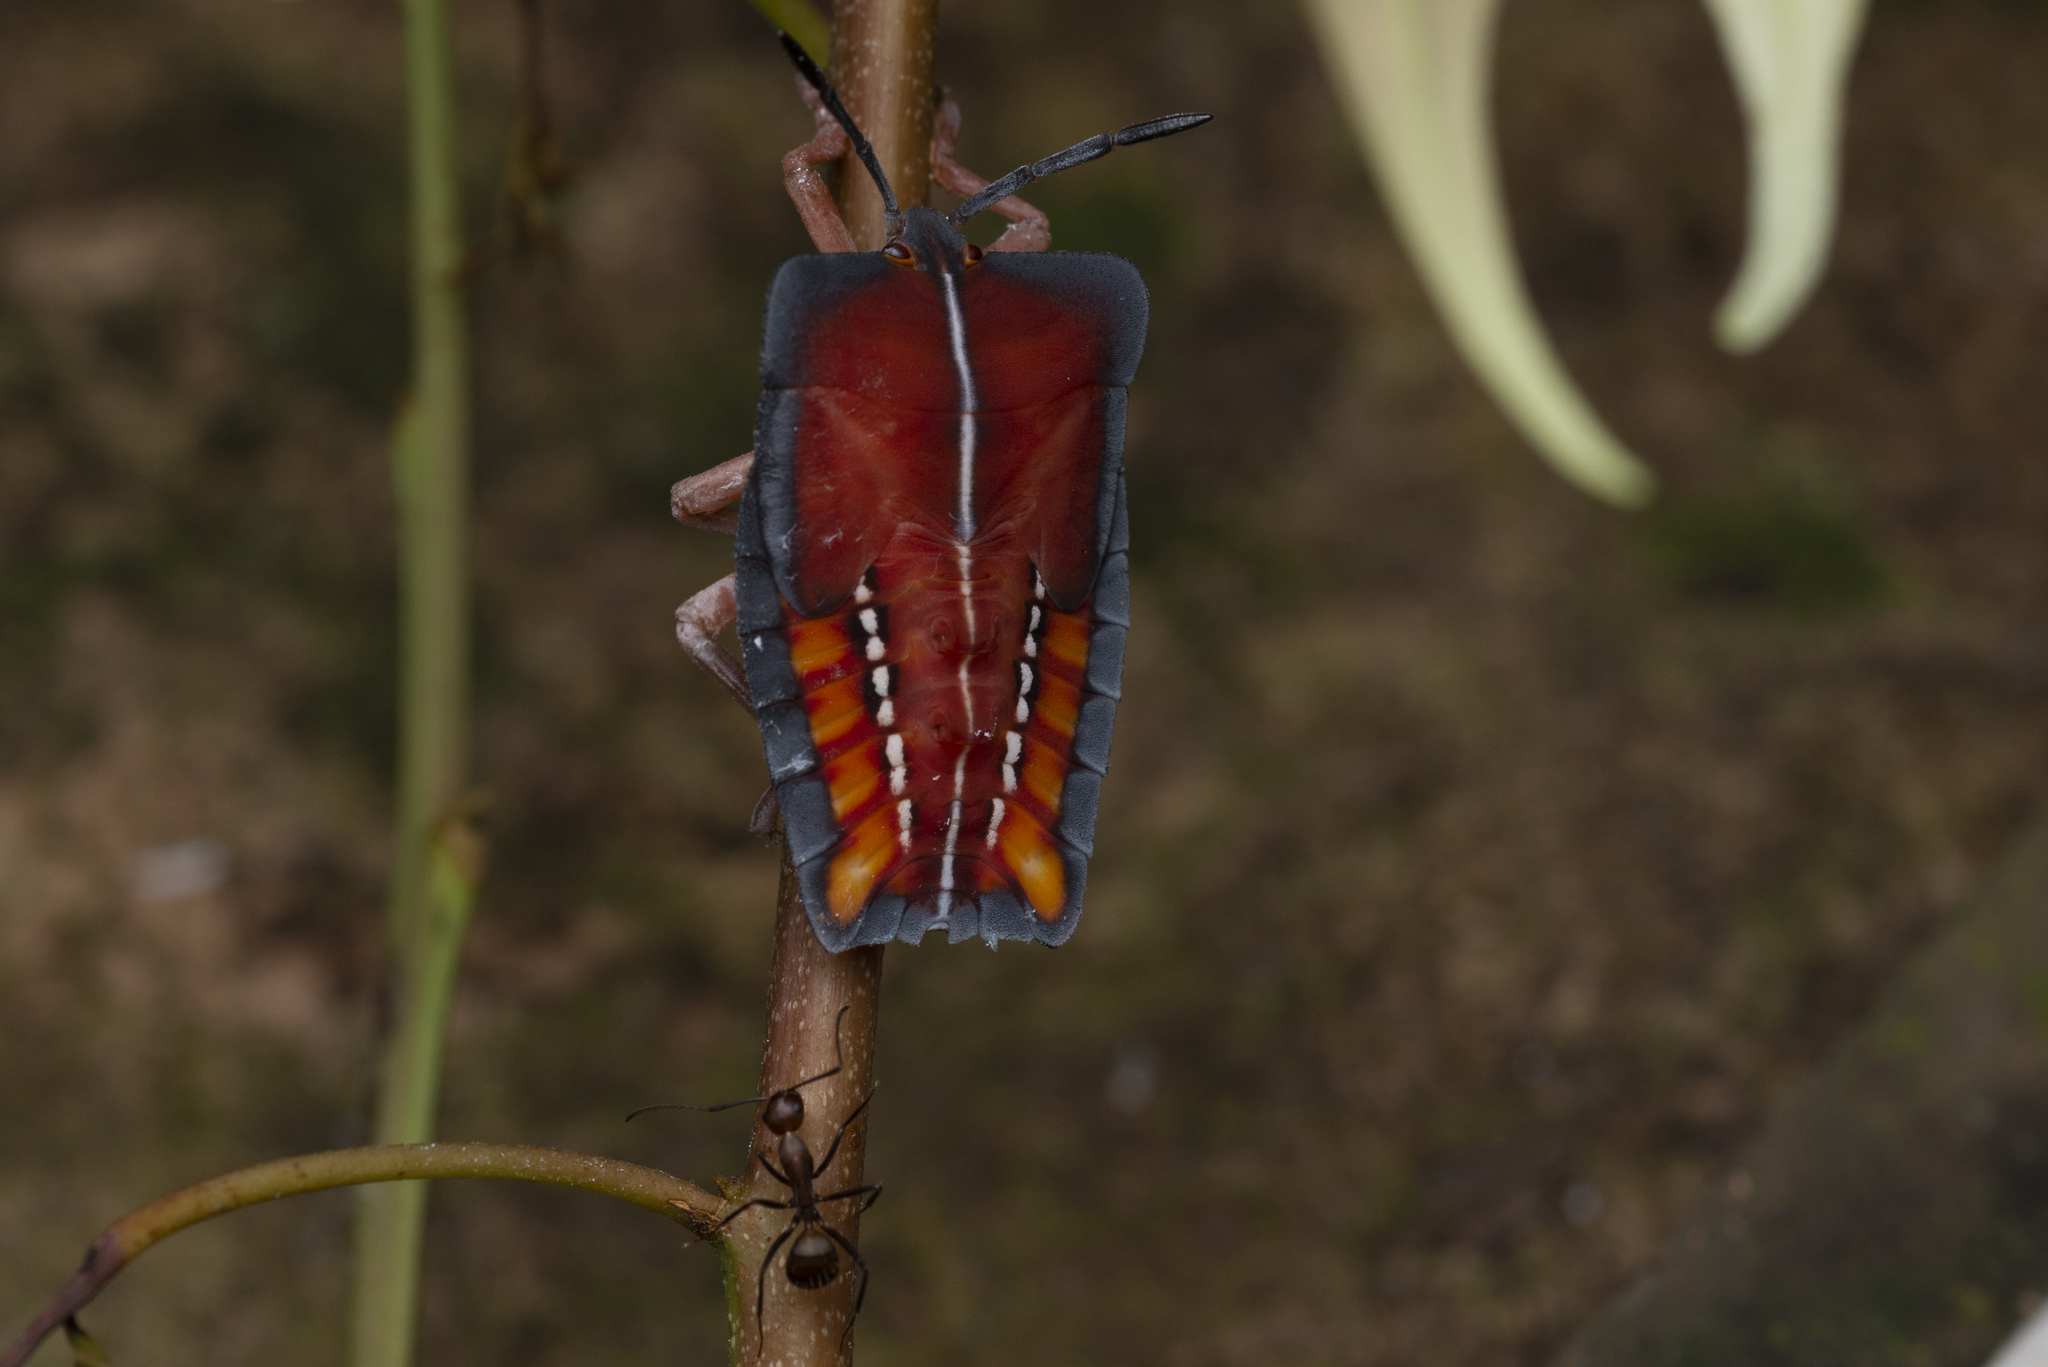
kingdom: Animalia
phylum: Arthropoda
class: Insecta
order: Hemiptera
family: Tessaratomidae
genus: Tessaratoma
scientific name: Tessaratoma papillosa
